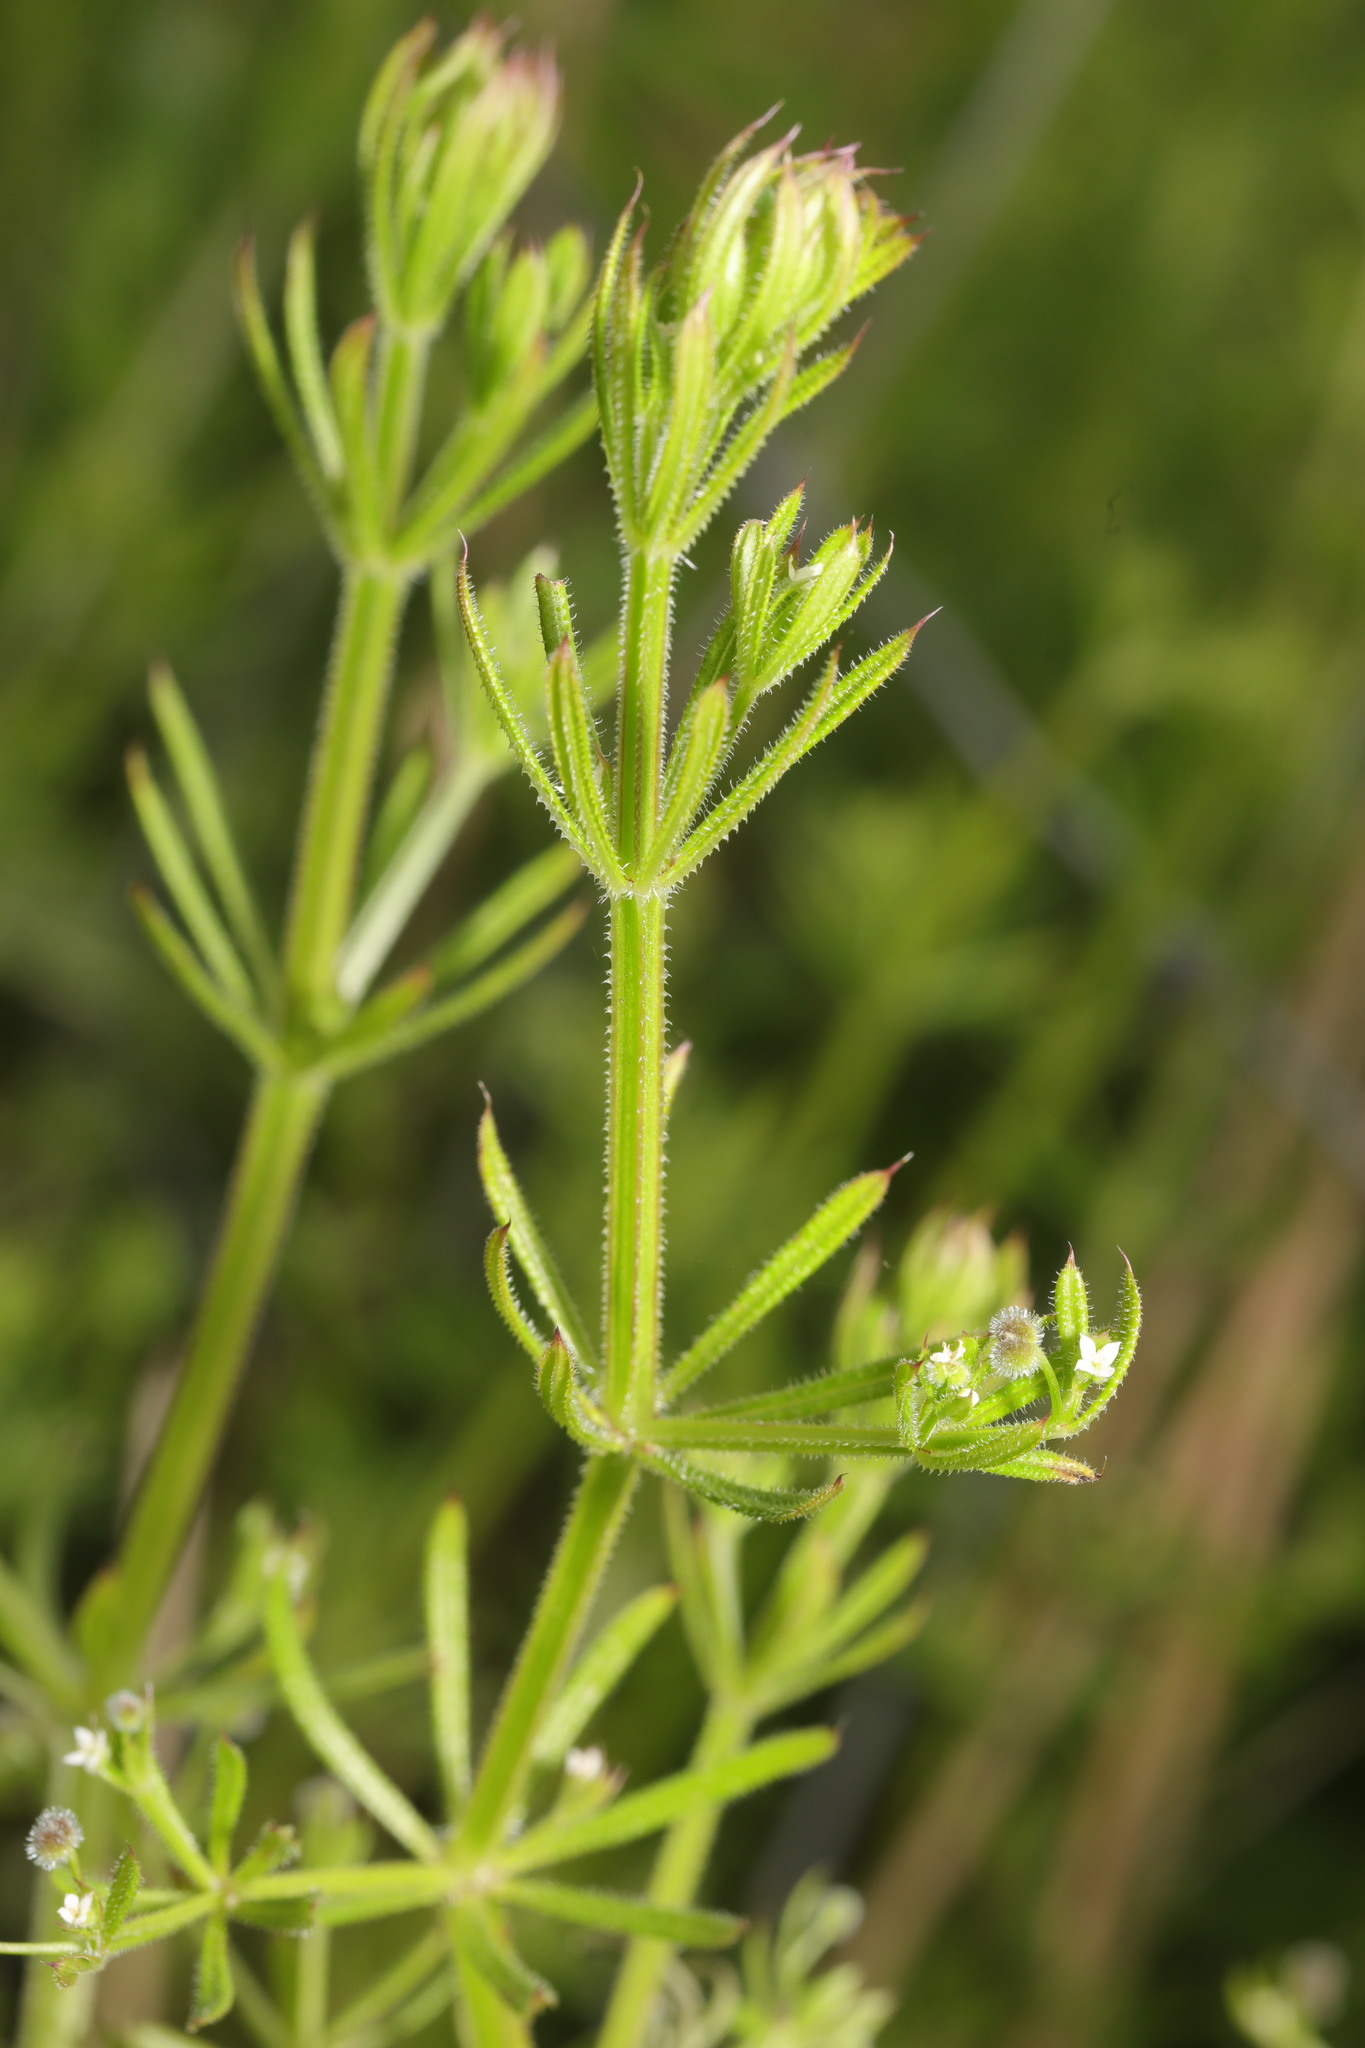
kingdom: Plantae
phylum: Tracheophyta
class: Magnoliopsida
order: Gentianales
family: Rubiaceae
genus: Galium
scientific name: Galium aparine
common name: Cleavers
